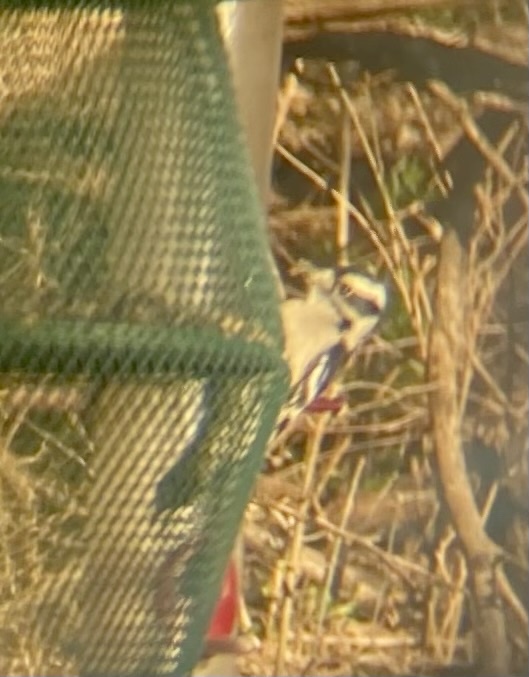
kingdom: Animalia
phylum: Chordata
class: Aves
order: Piciformes
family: Picidae
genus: Dryobates
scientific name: Dryobates pubescens
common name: Downy woodpecker
